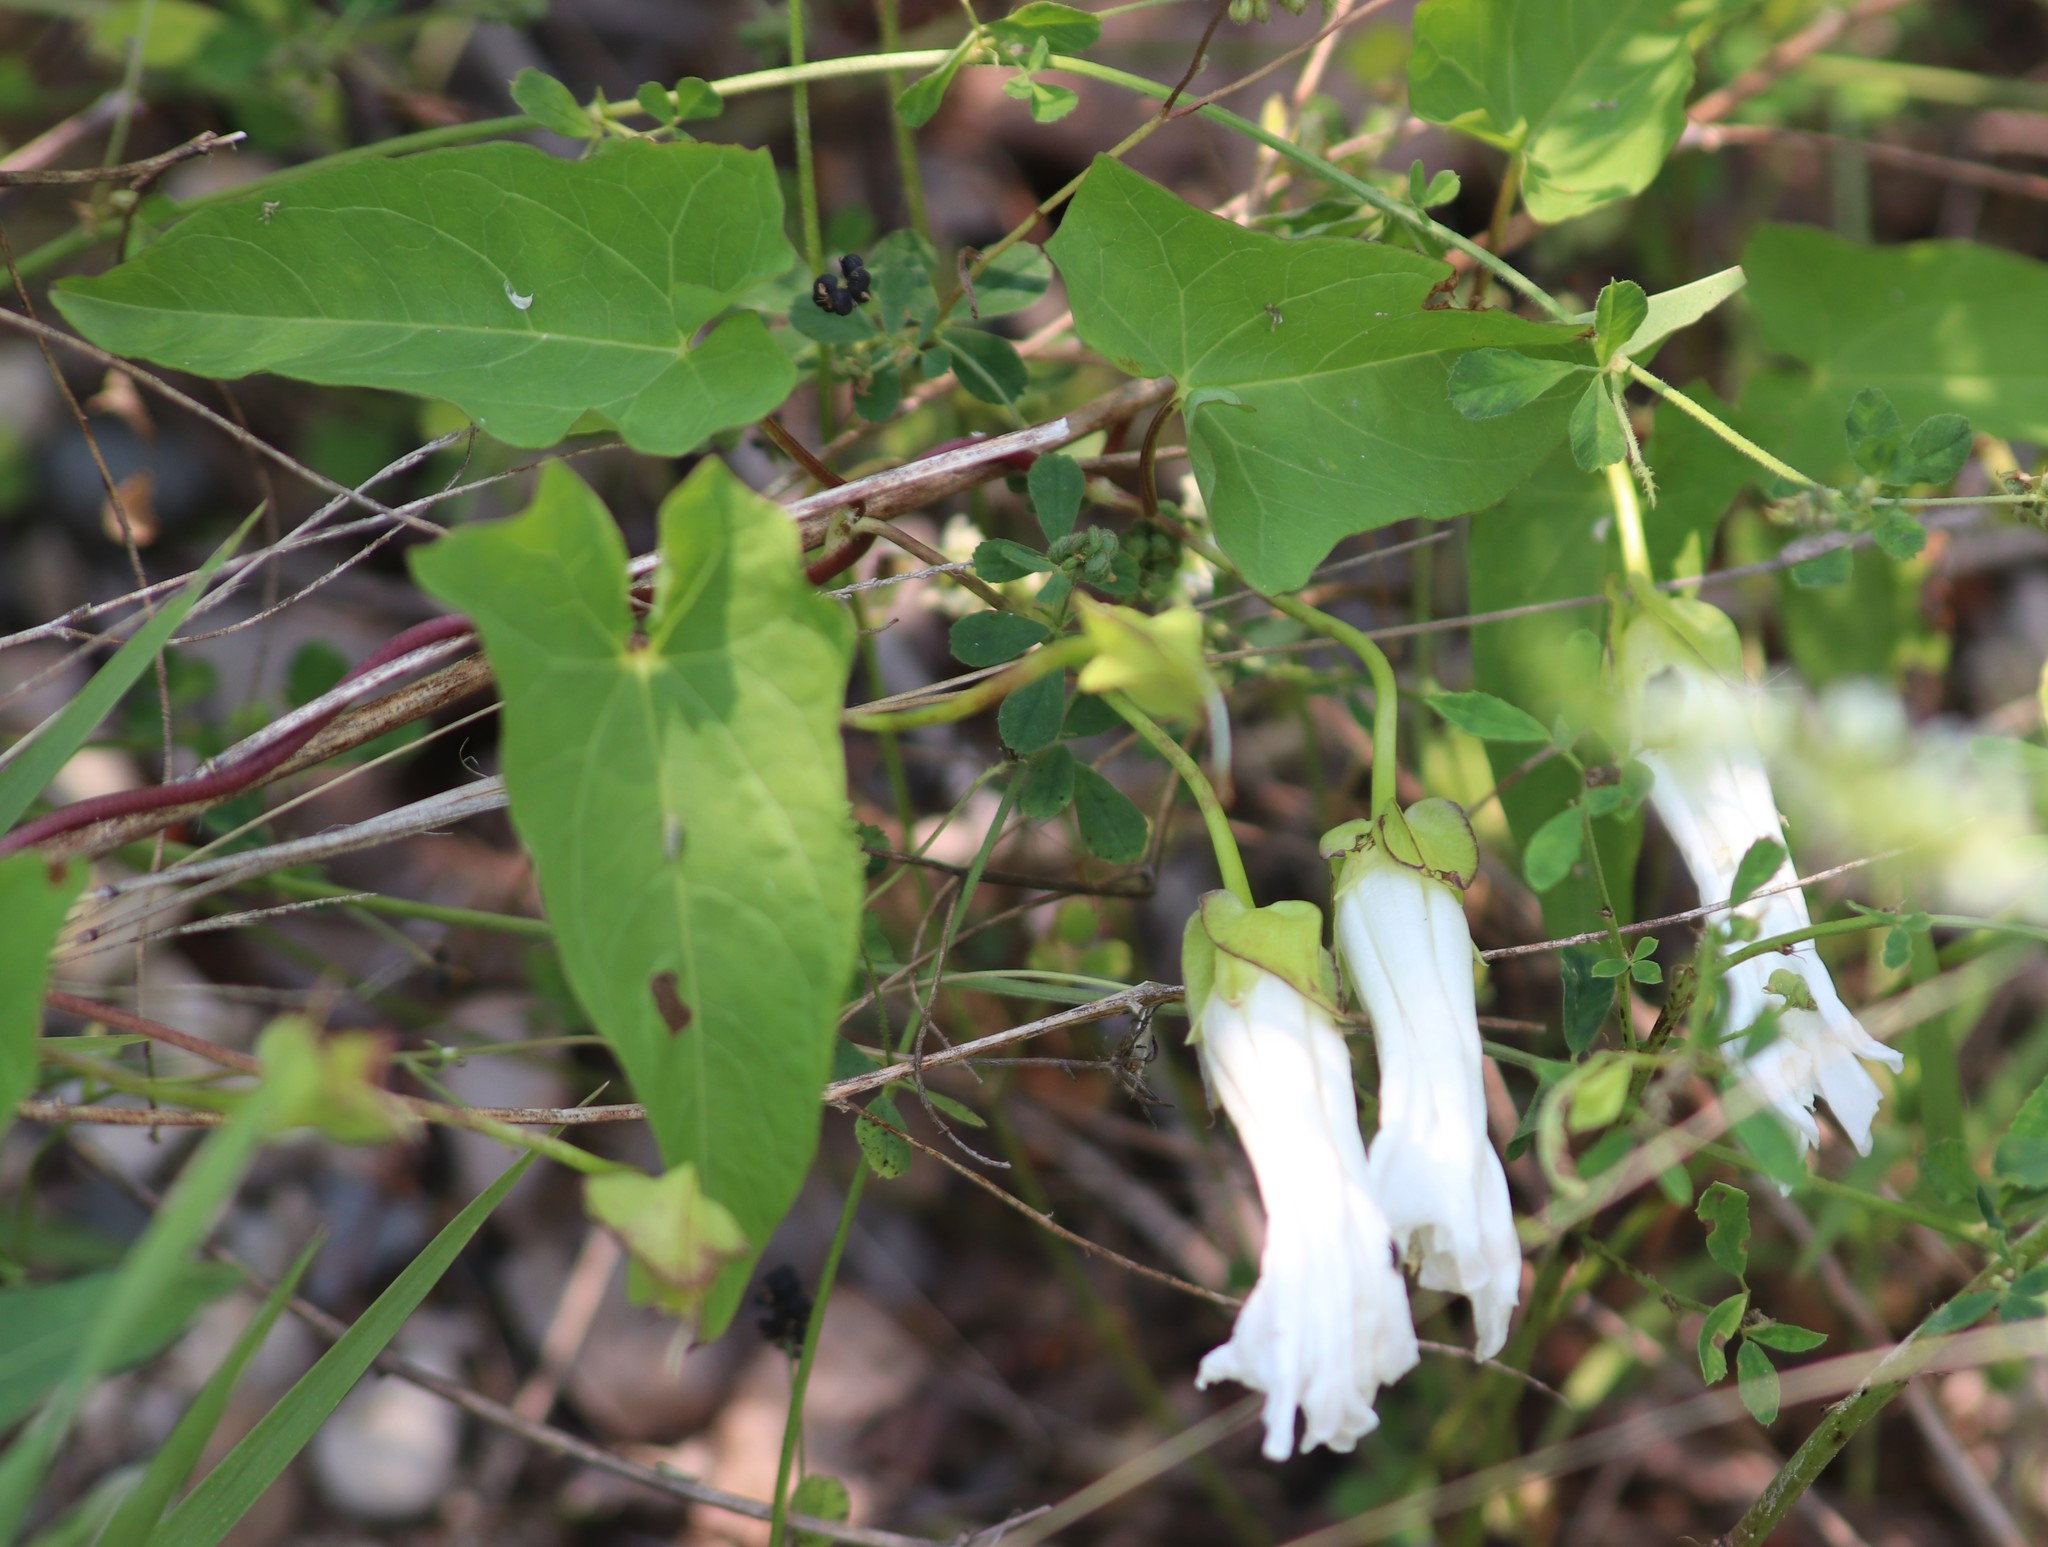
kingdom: Plantae
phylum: Tracheophyta
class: Magnoliopsida
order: Solanales
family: Convolvulaceae
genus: Calystegia
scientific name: Calystegia sepium
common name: Hedge bindweed
